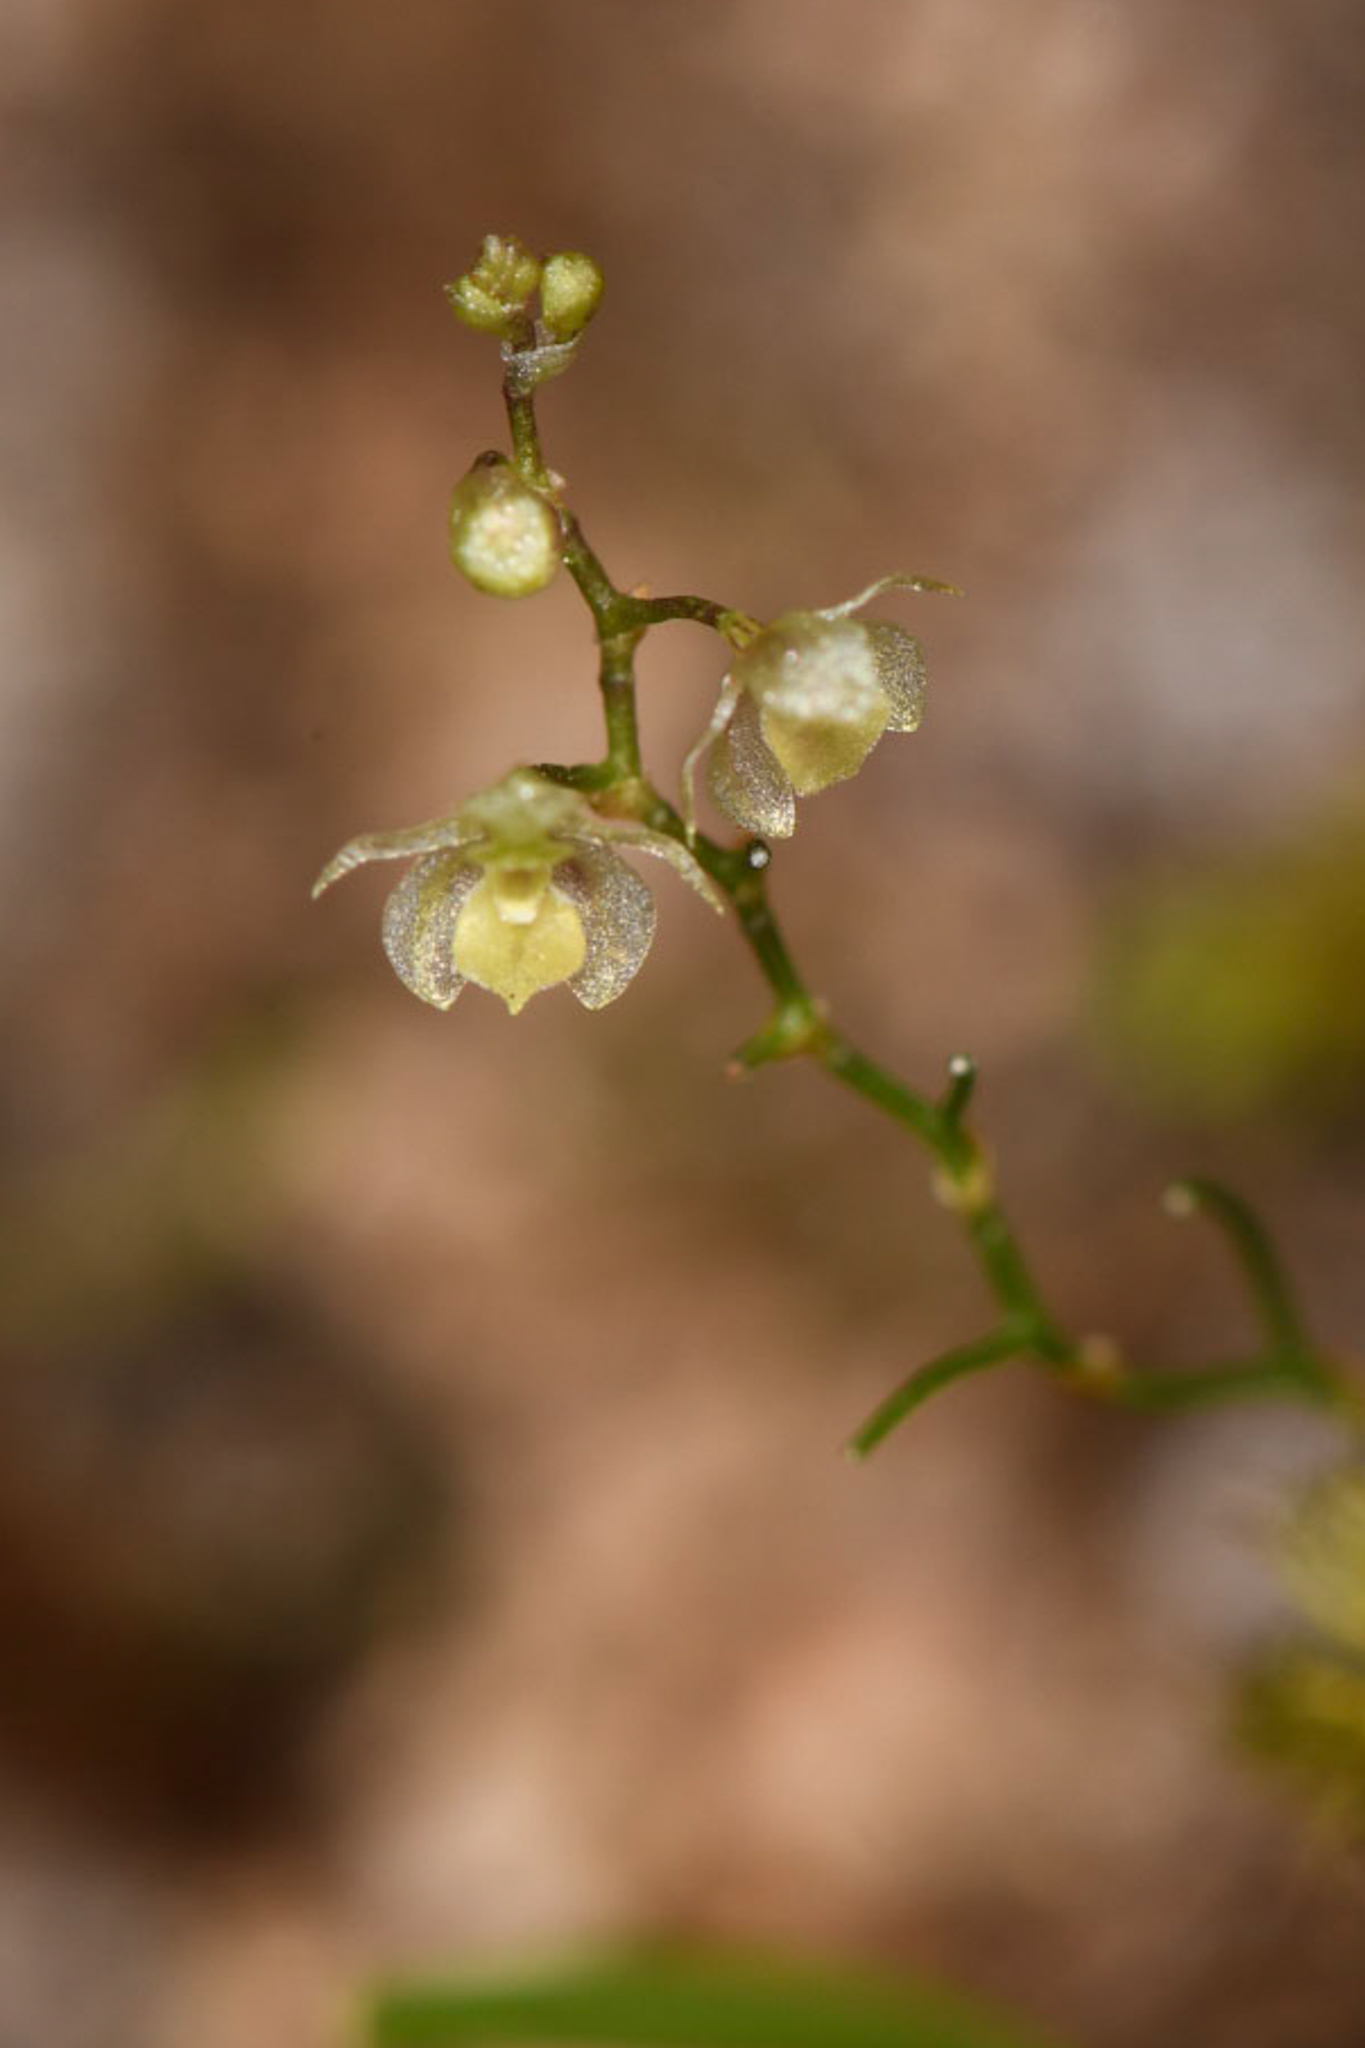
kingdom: Plantae
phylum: Tracheophyta
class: Liliopsida
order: Asparagales
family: Orchidaceae
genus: Platystele
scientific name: Platystele microtatantha
